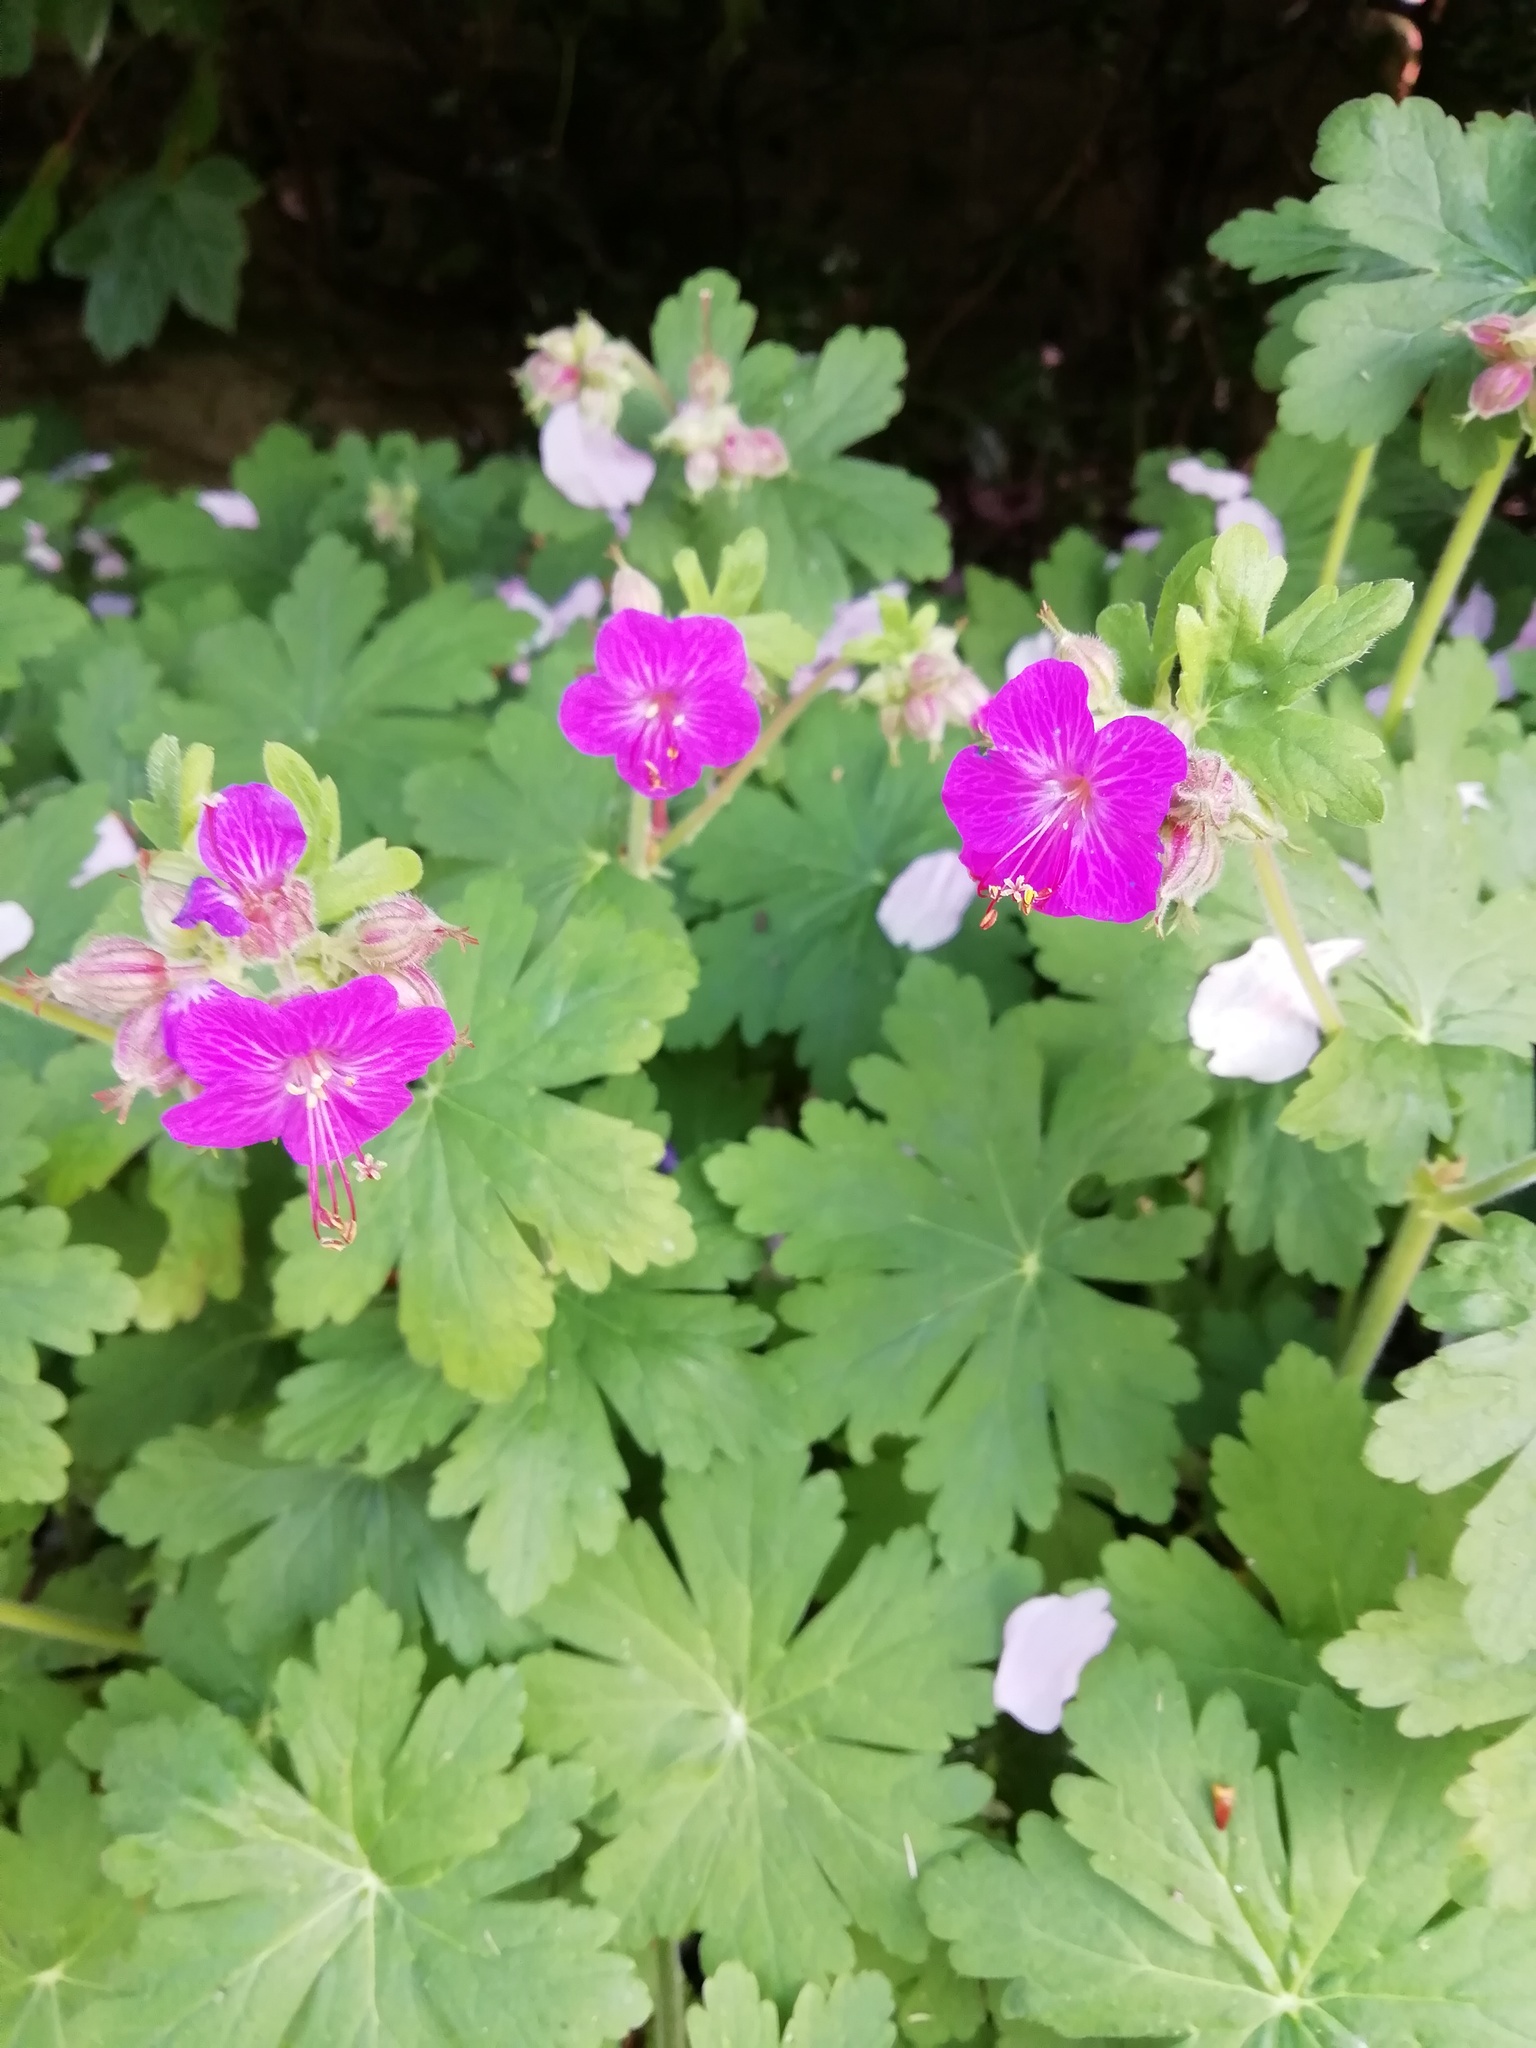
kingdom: Plantae
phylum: Tracheophyta
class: Magnoliopsida
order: Geraniales
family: Geraniaceae
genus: Geranium
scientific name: Geranium macrorrhizum
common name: Rock crane's-bill
